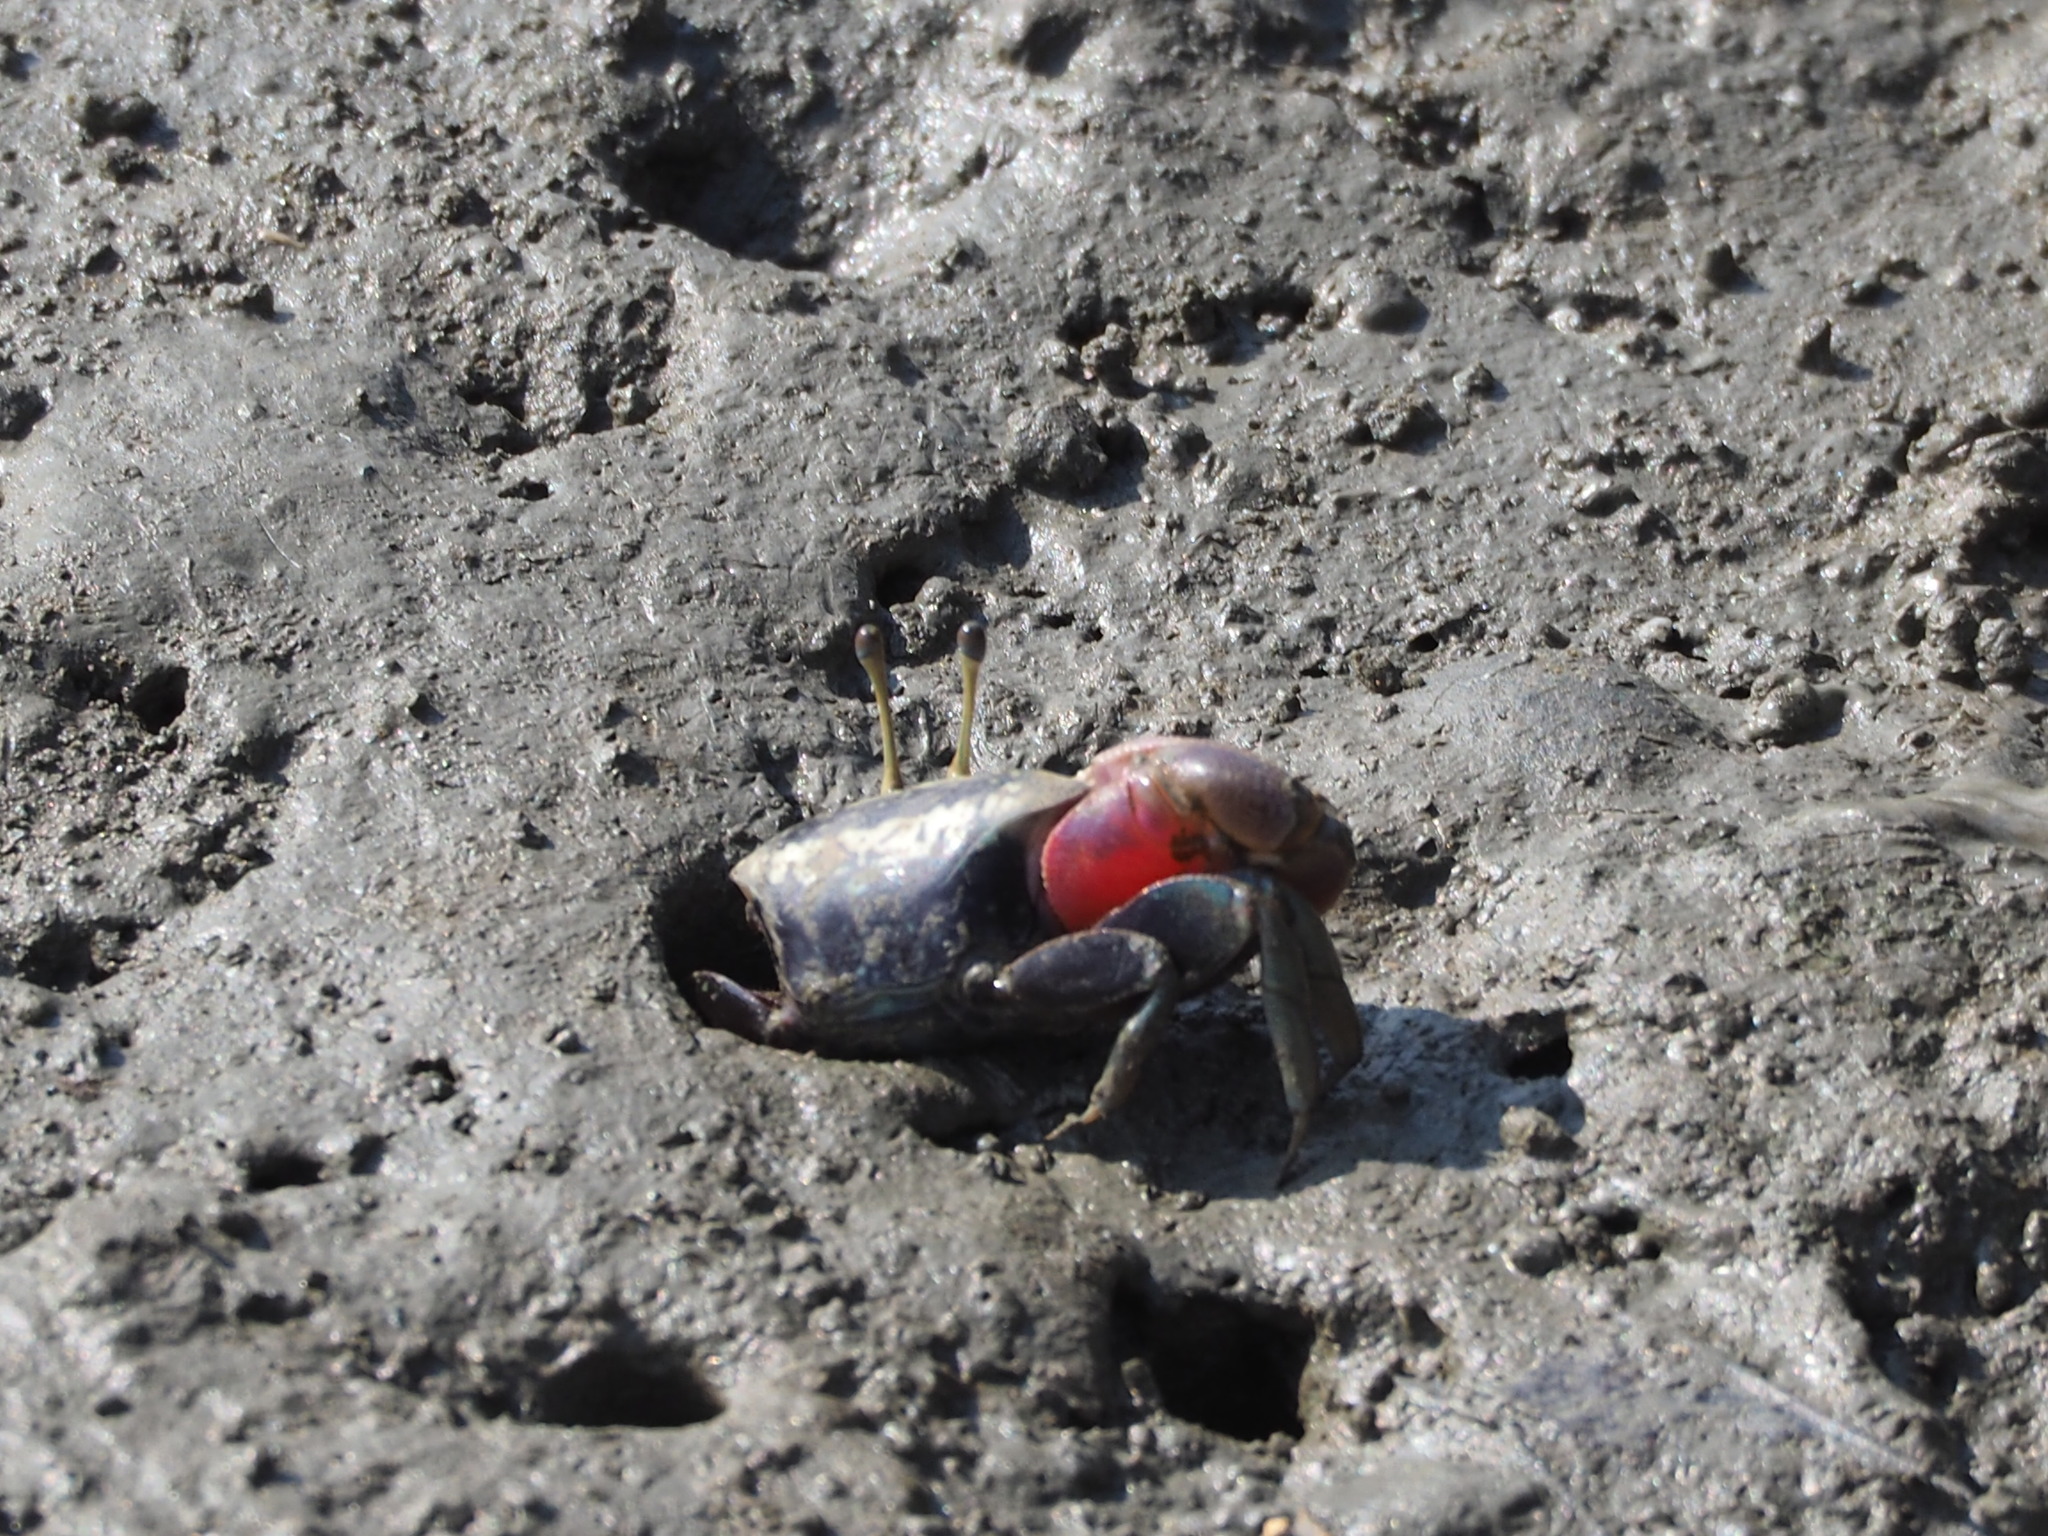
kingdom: Animalia
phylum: Arthropoda
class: Malacostraca
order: Decapoda
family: Ocypodidae
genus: Tubuca
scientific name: Tubuca arcuata
